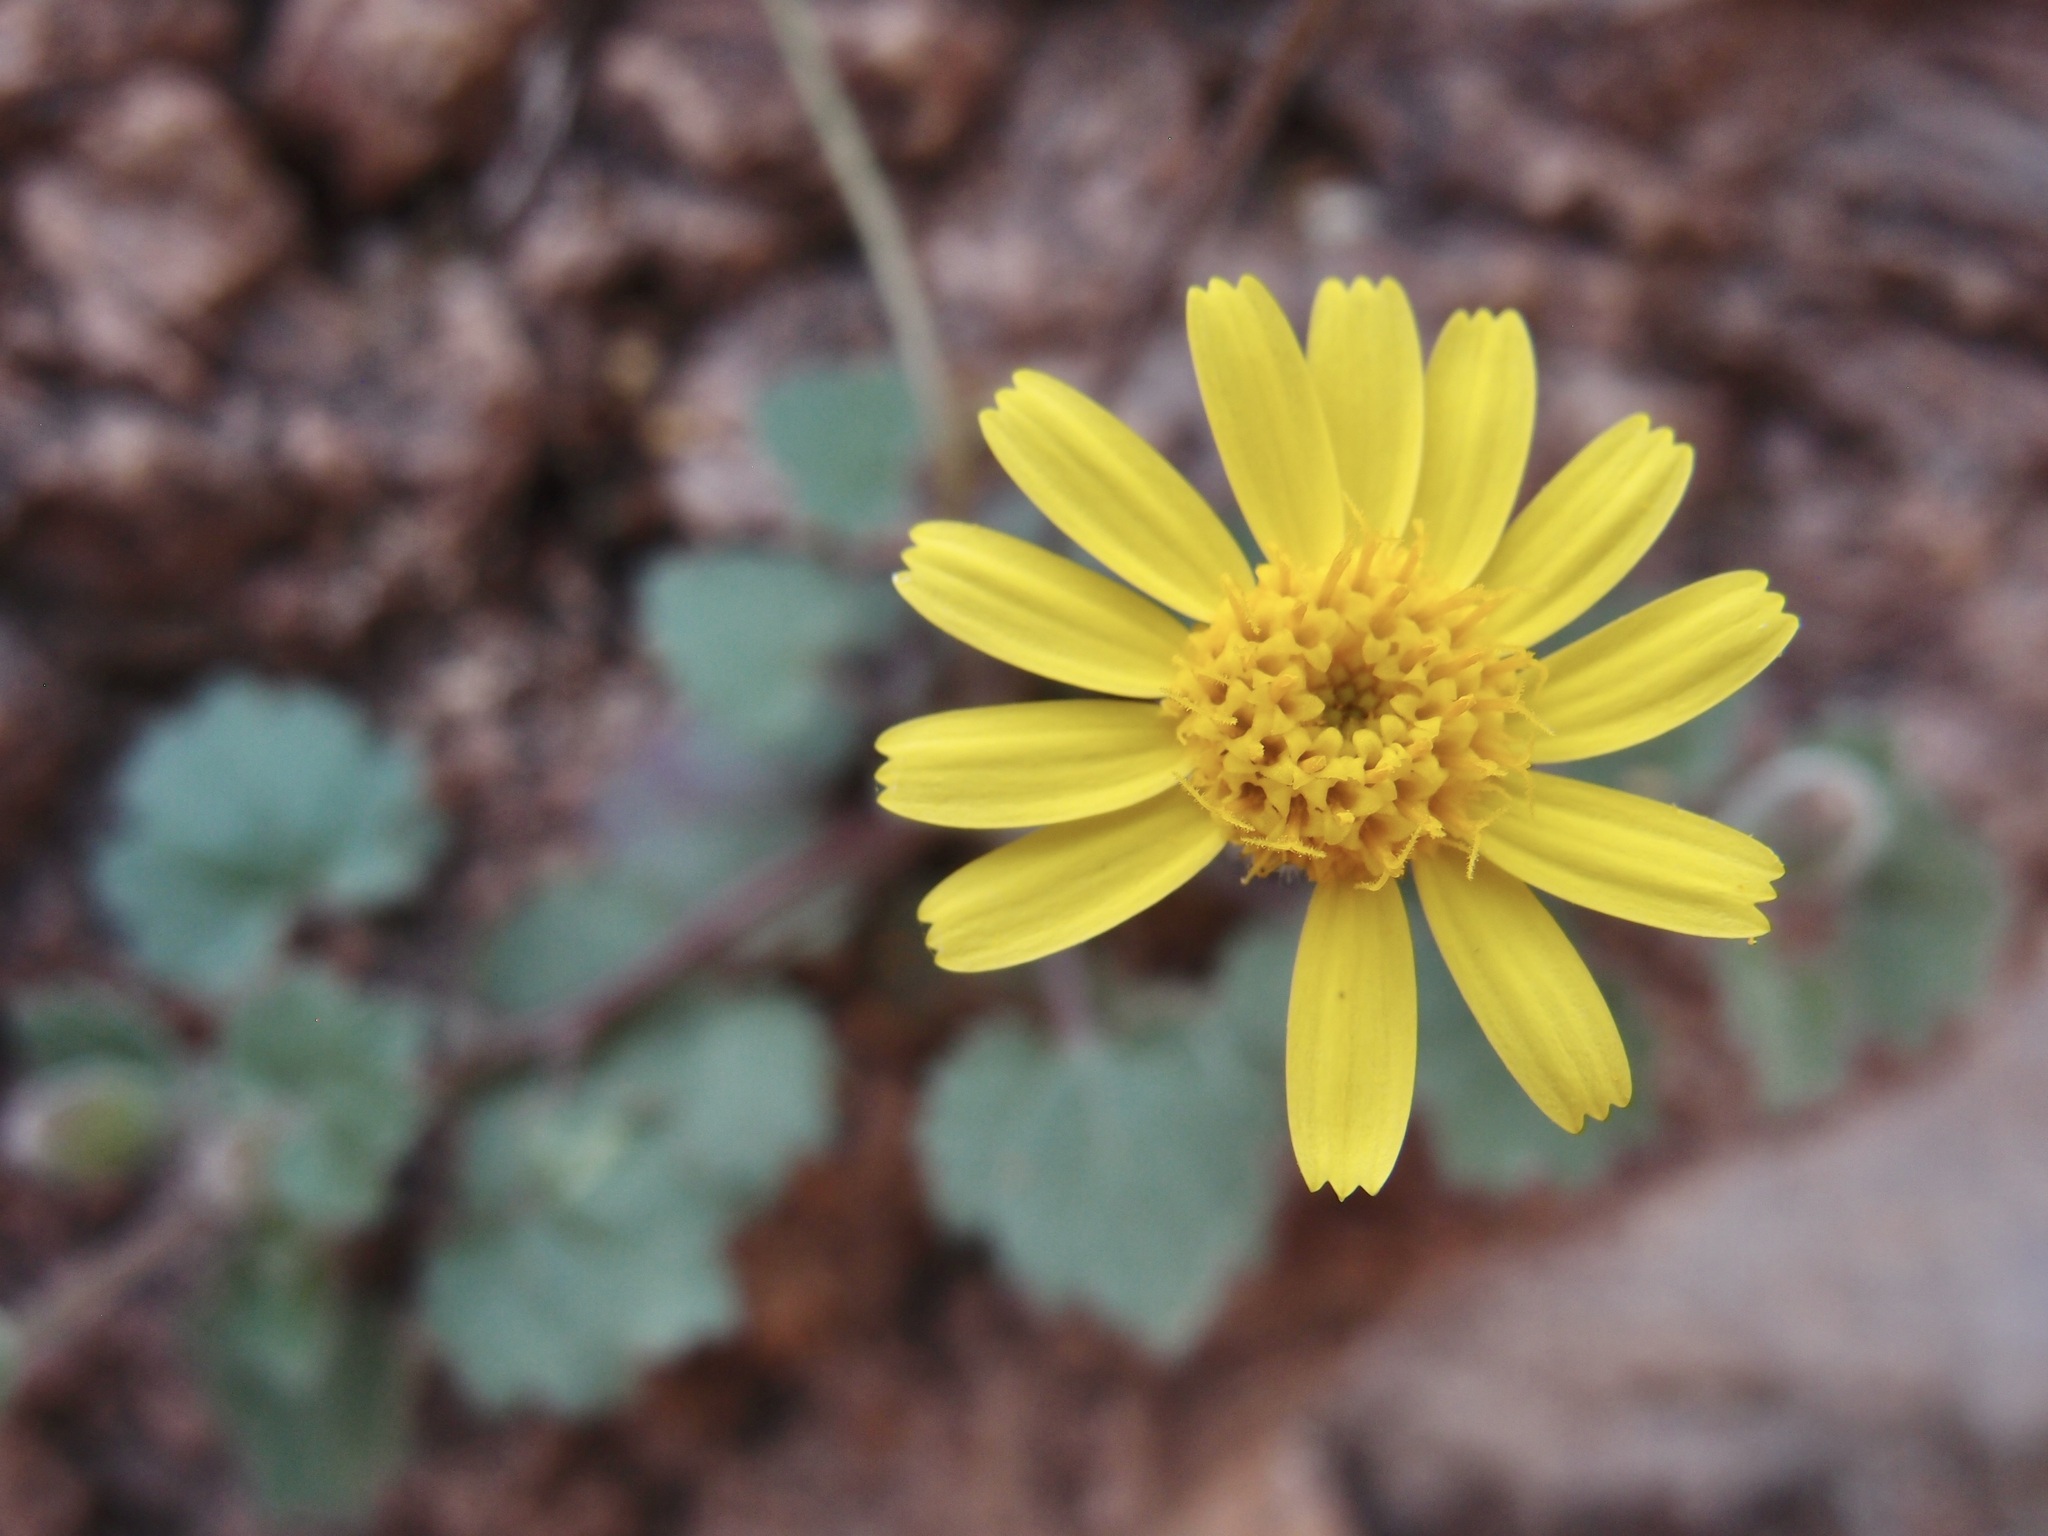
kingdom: Plantae
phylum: Tracheophyta
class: Magnoliopsida
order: Asterales
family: Asteraceae
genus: Laphamia
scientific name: Laphamia sanchezii
